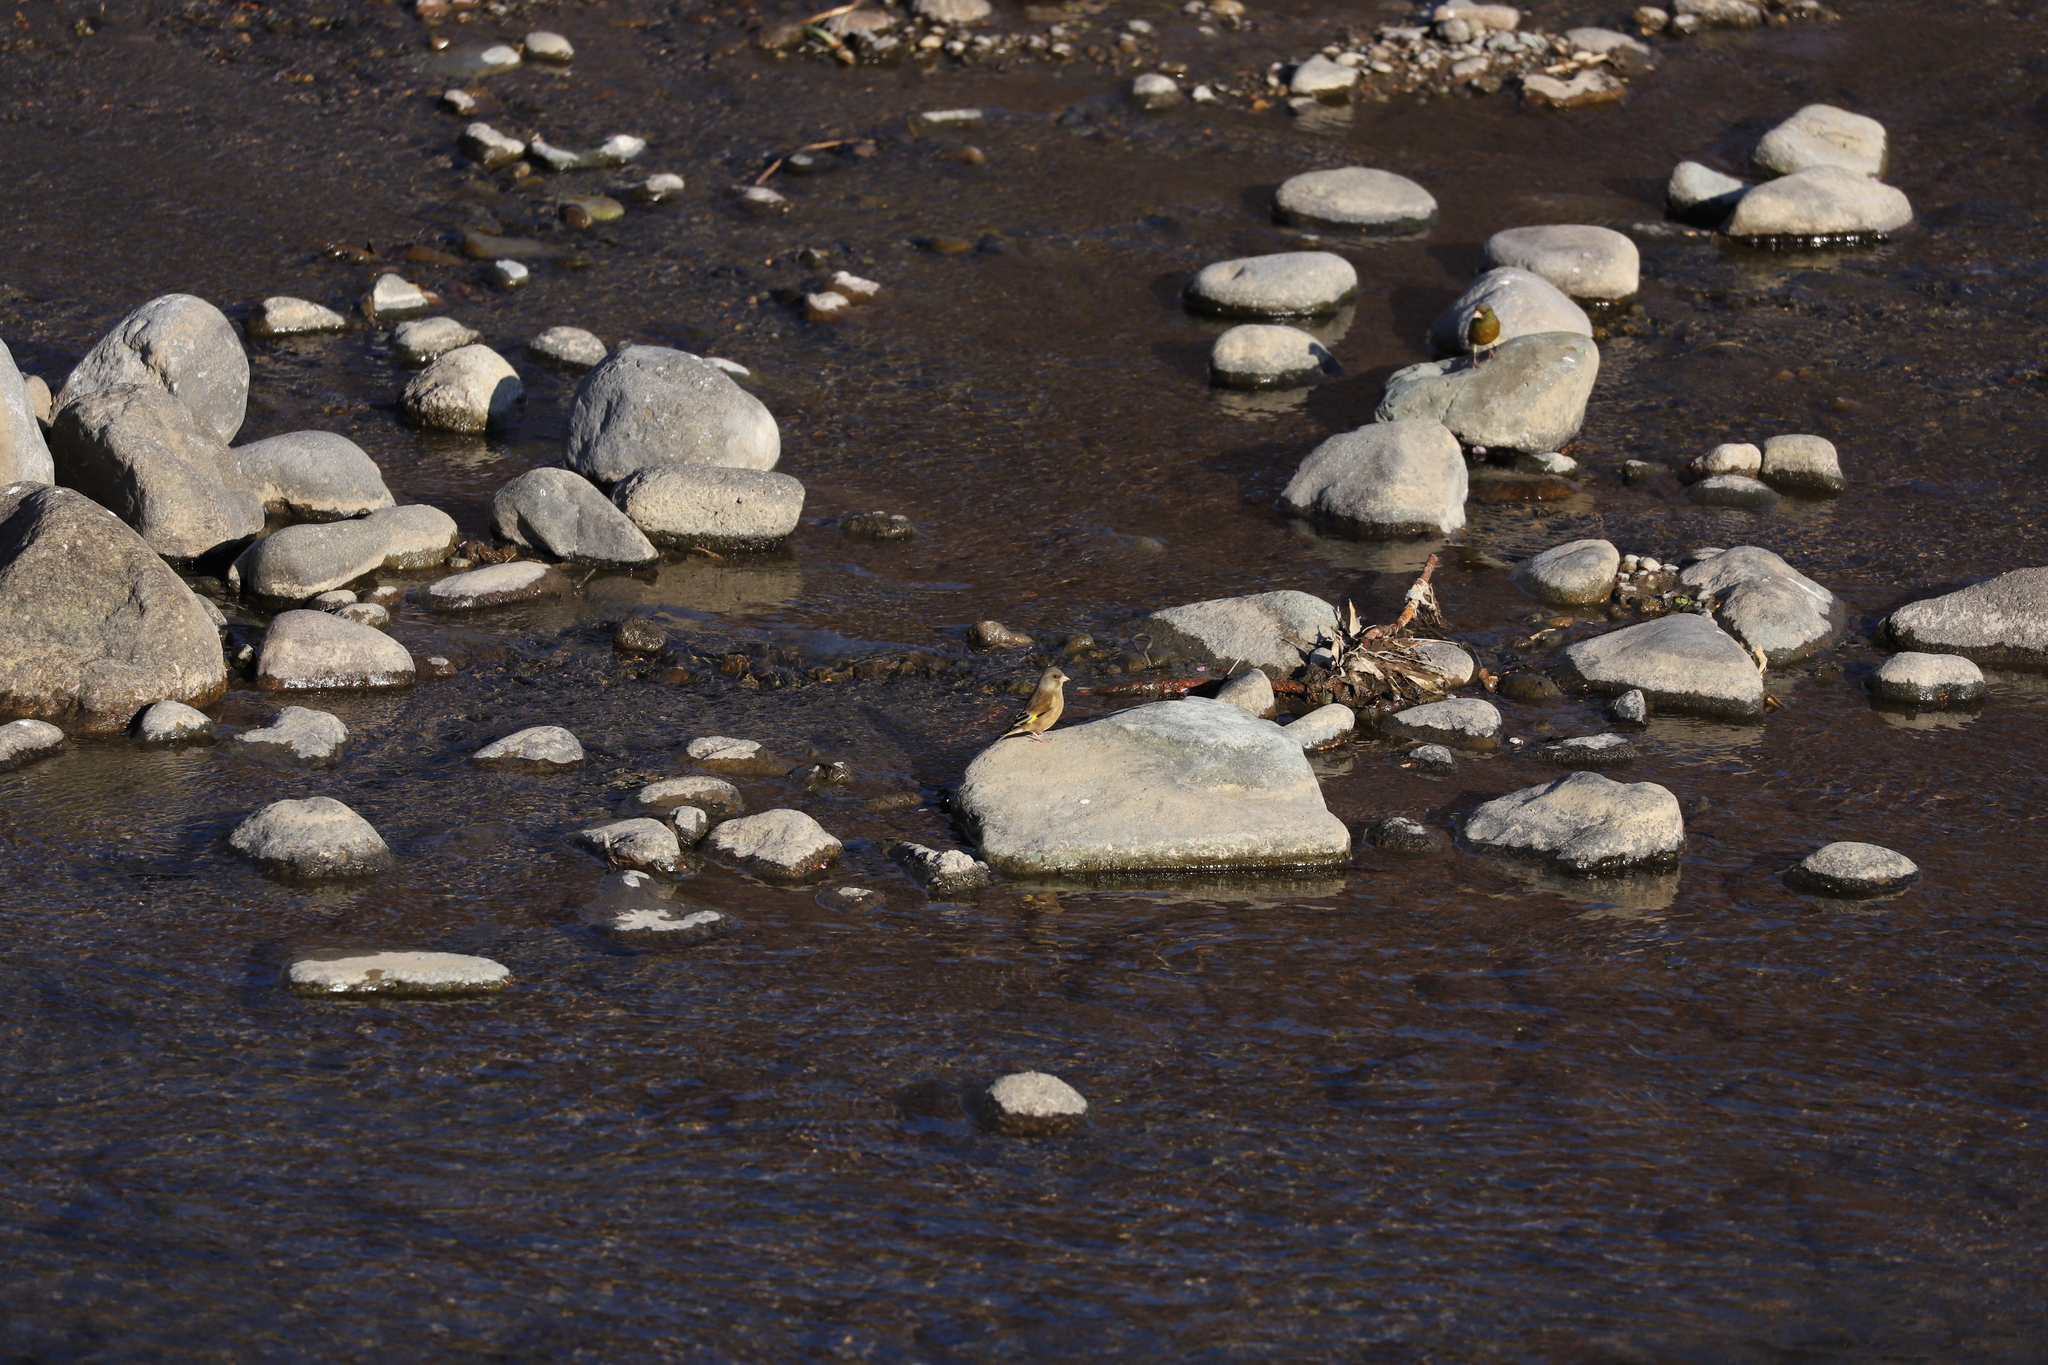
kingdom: Plantae
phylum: Tracheophyta
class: Liliopsida
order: Poales
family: Poaceae
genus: Chloris
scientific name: Chloris sinica
